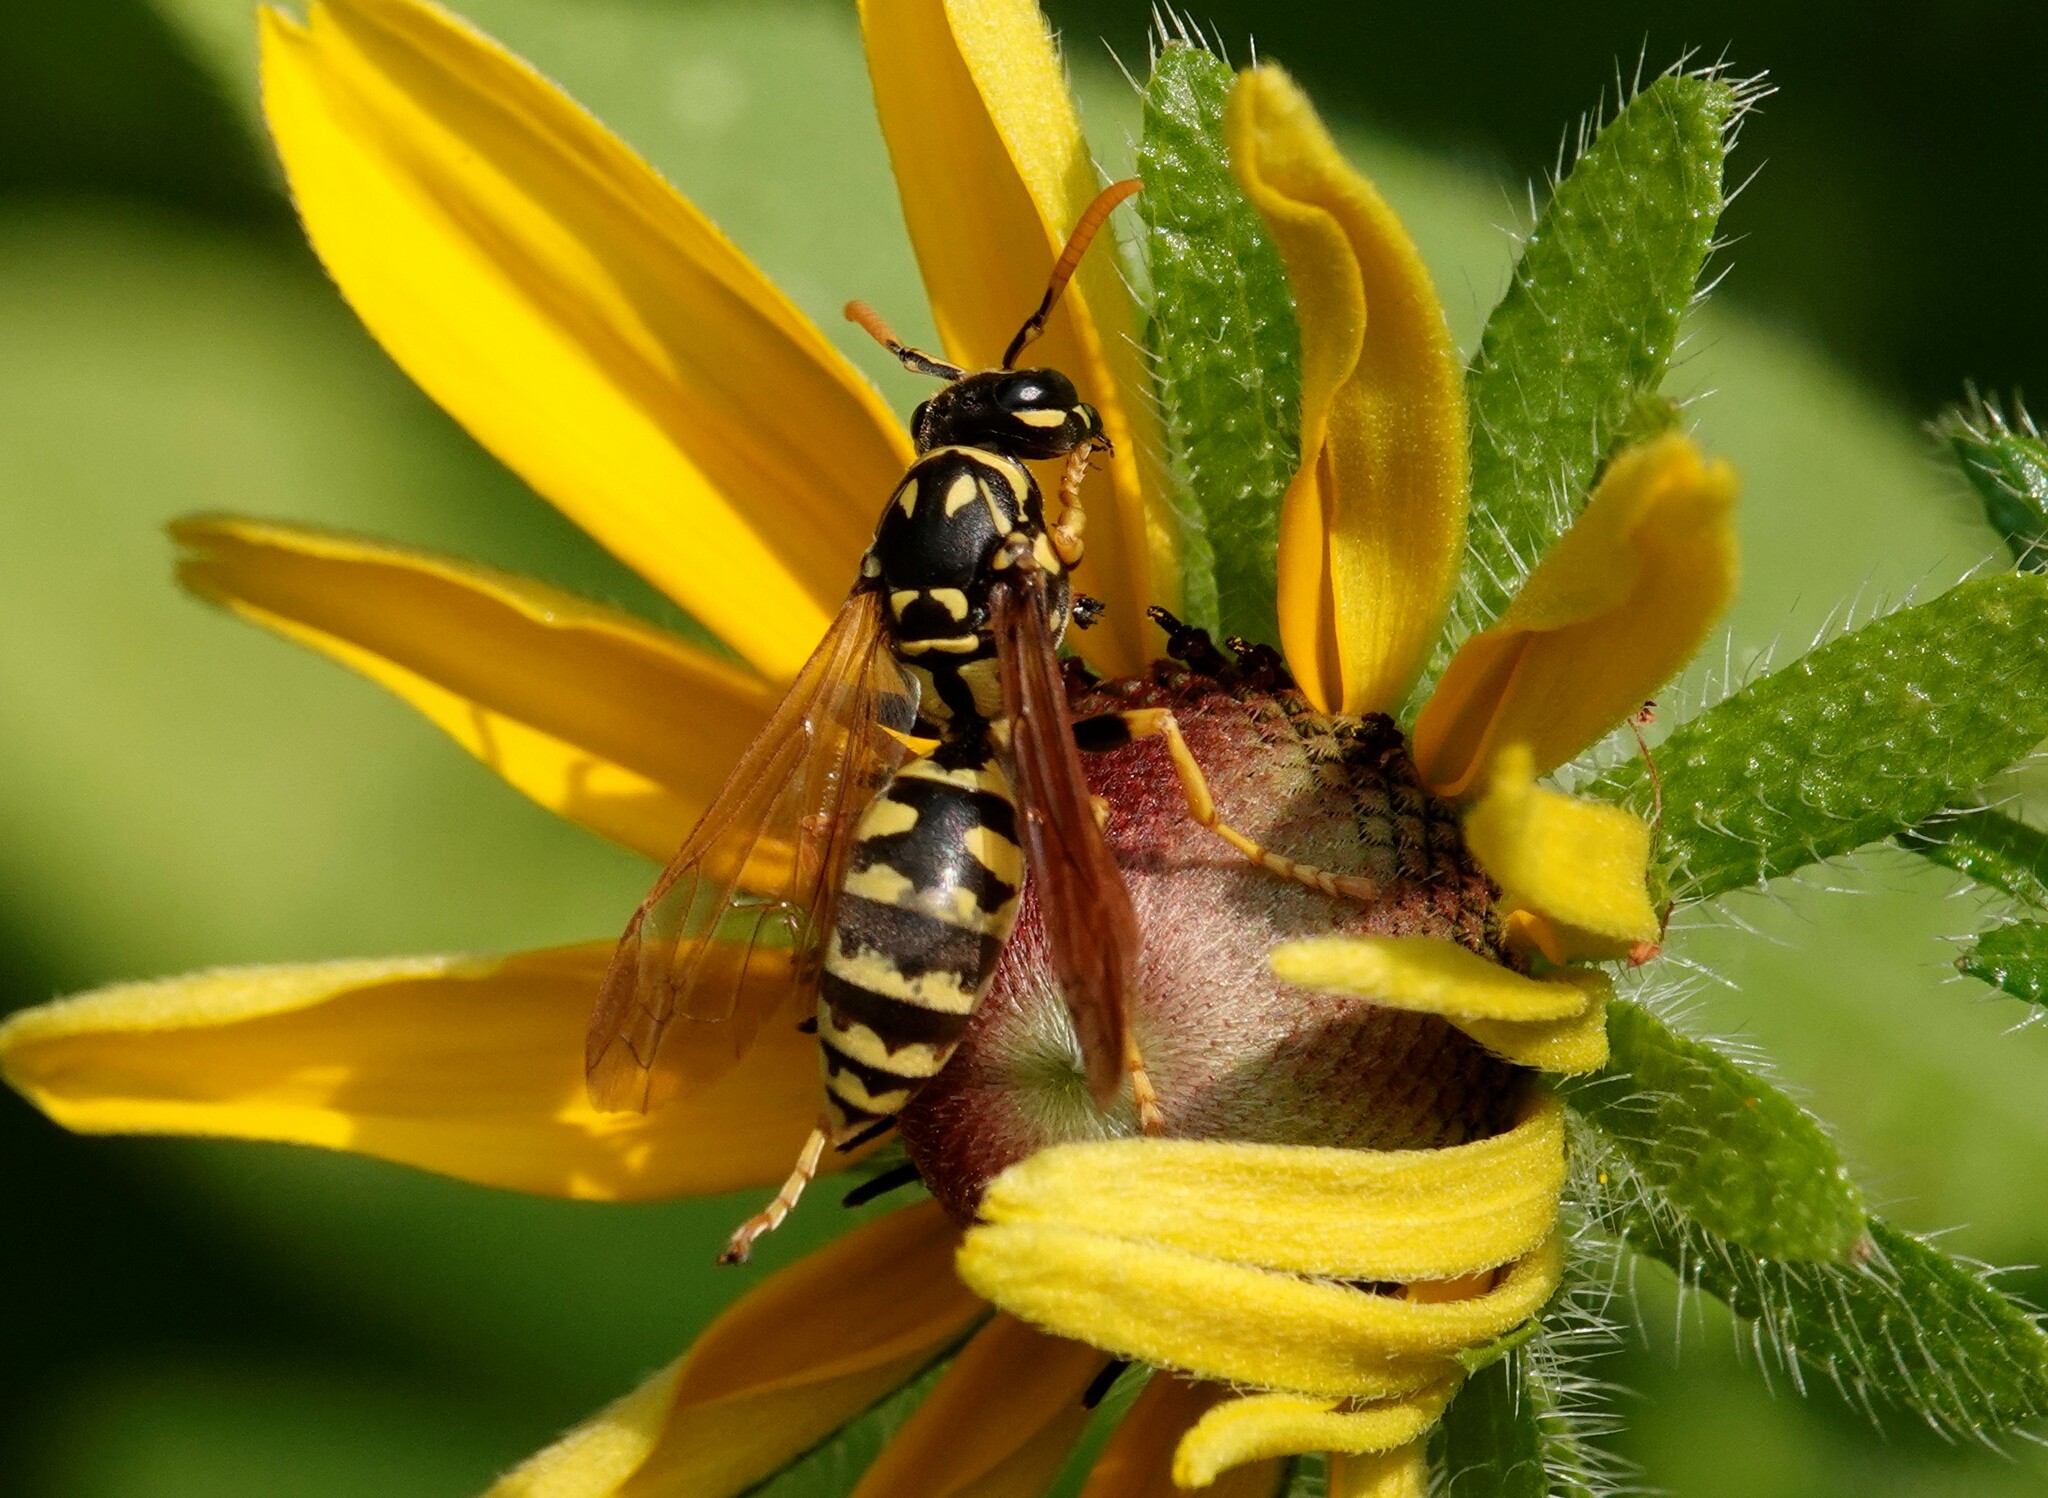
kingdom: Animalia
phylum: Arthropoda
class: Insecta
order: Hymenoptera
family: Eumenidae
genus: Polistes
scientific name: Polistes dominula
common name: Paper wasp
